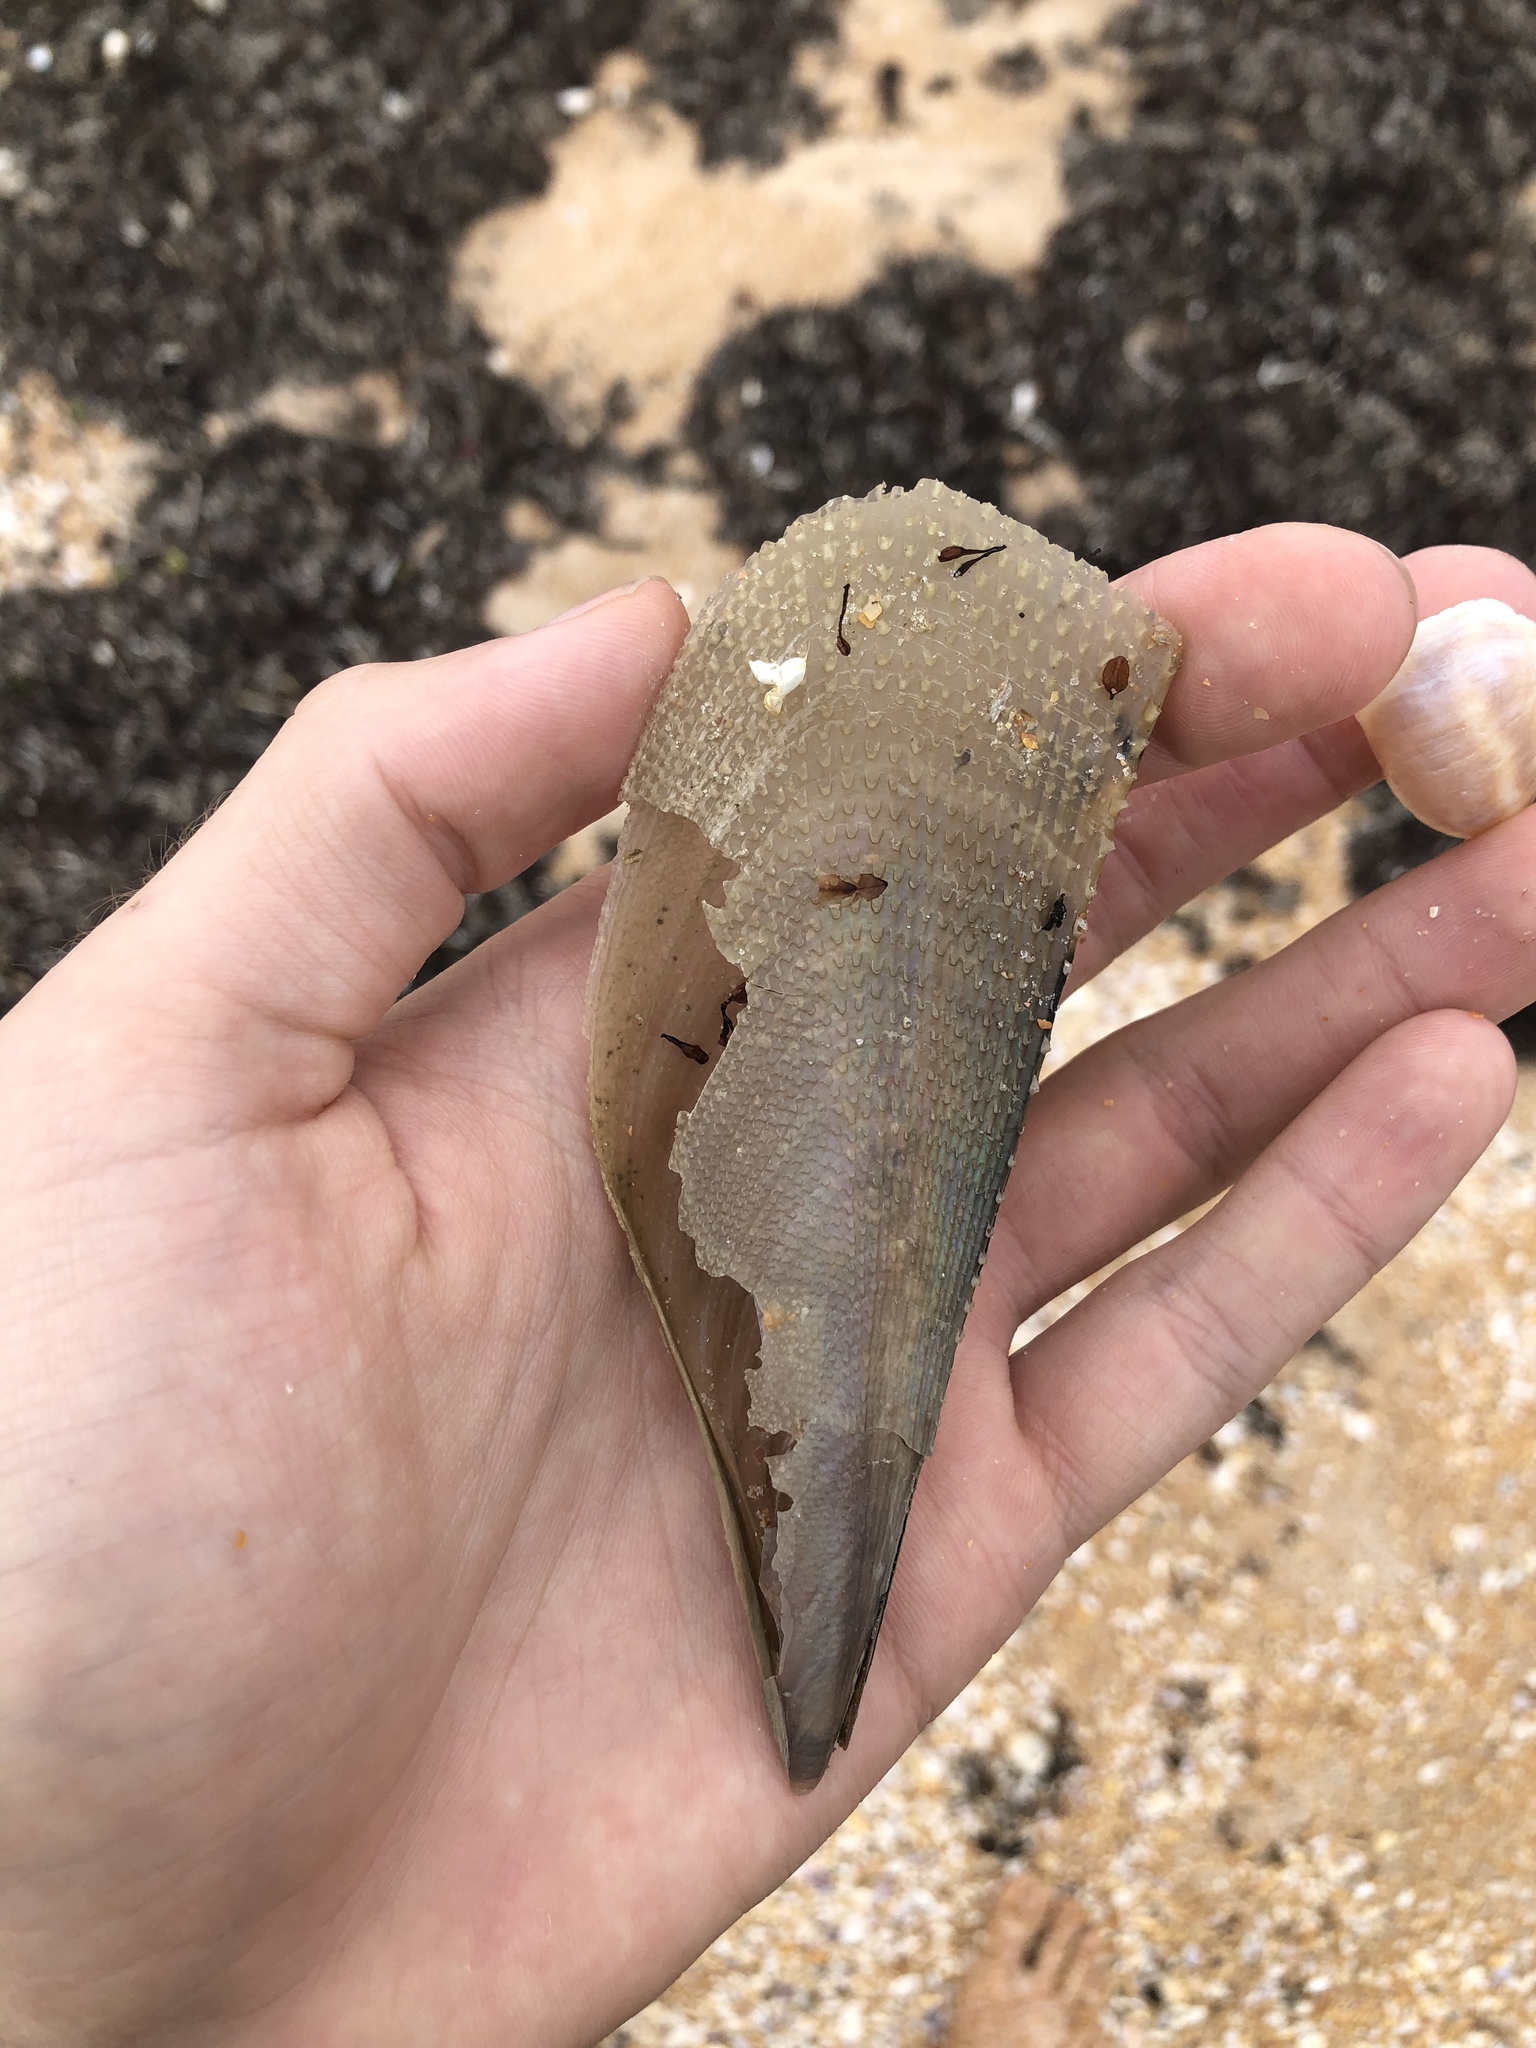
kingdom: Animalia
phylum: Mollusca
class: Bivalvia
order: Ostreida
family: Pinnidae
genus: Atrina
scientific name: Atrina serrata
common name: Saw-toothed penshell
